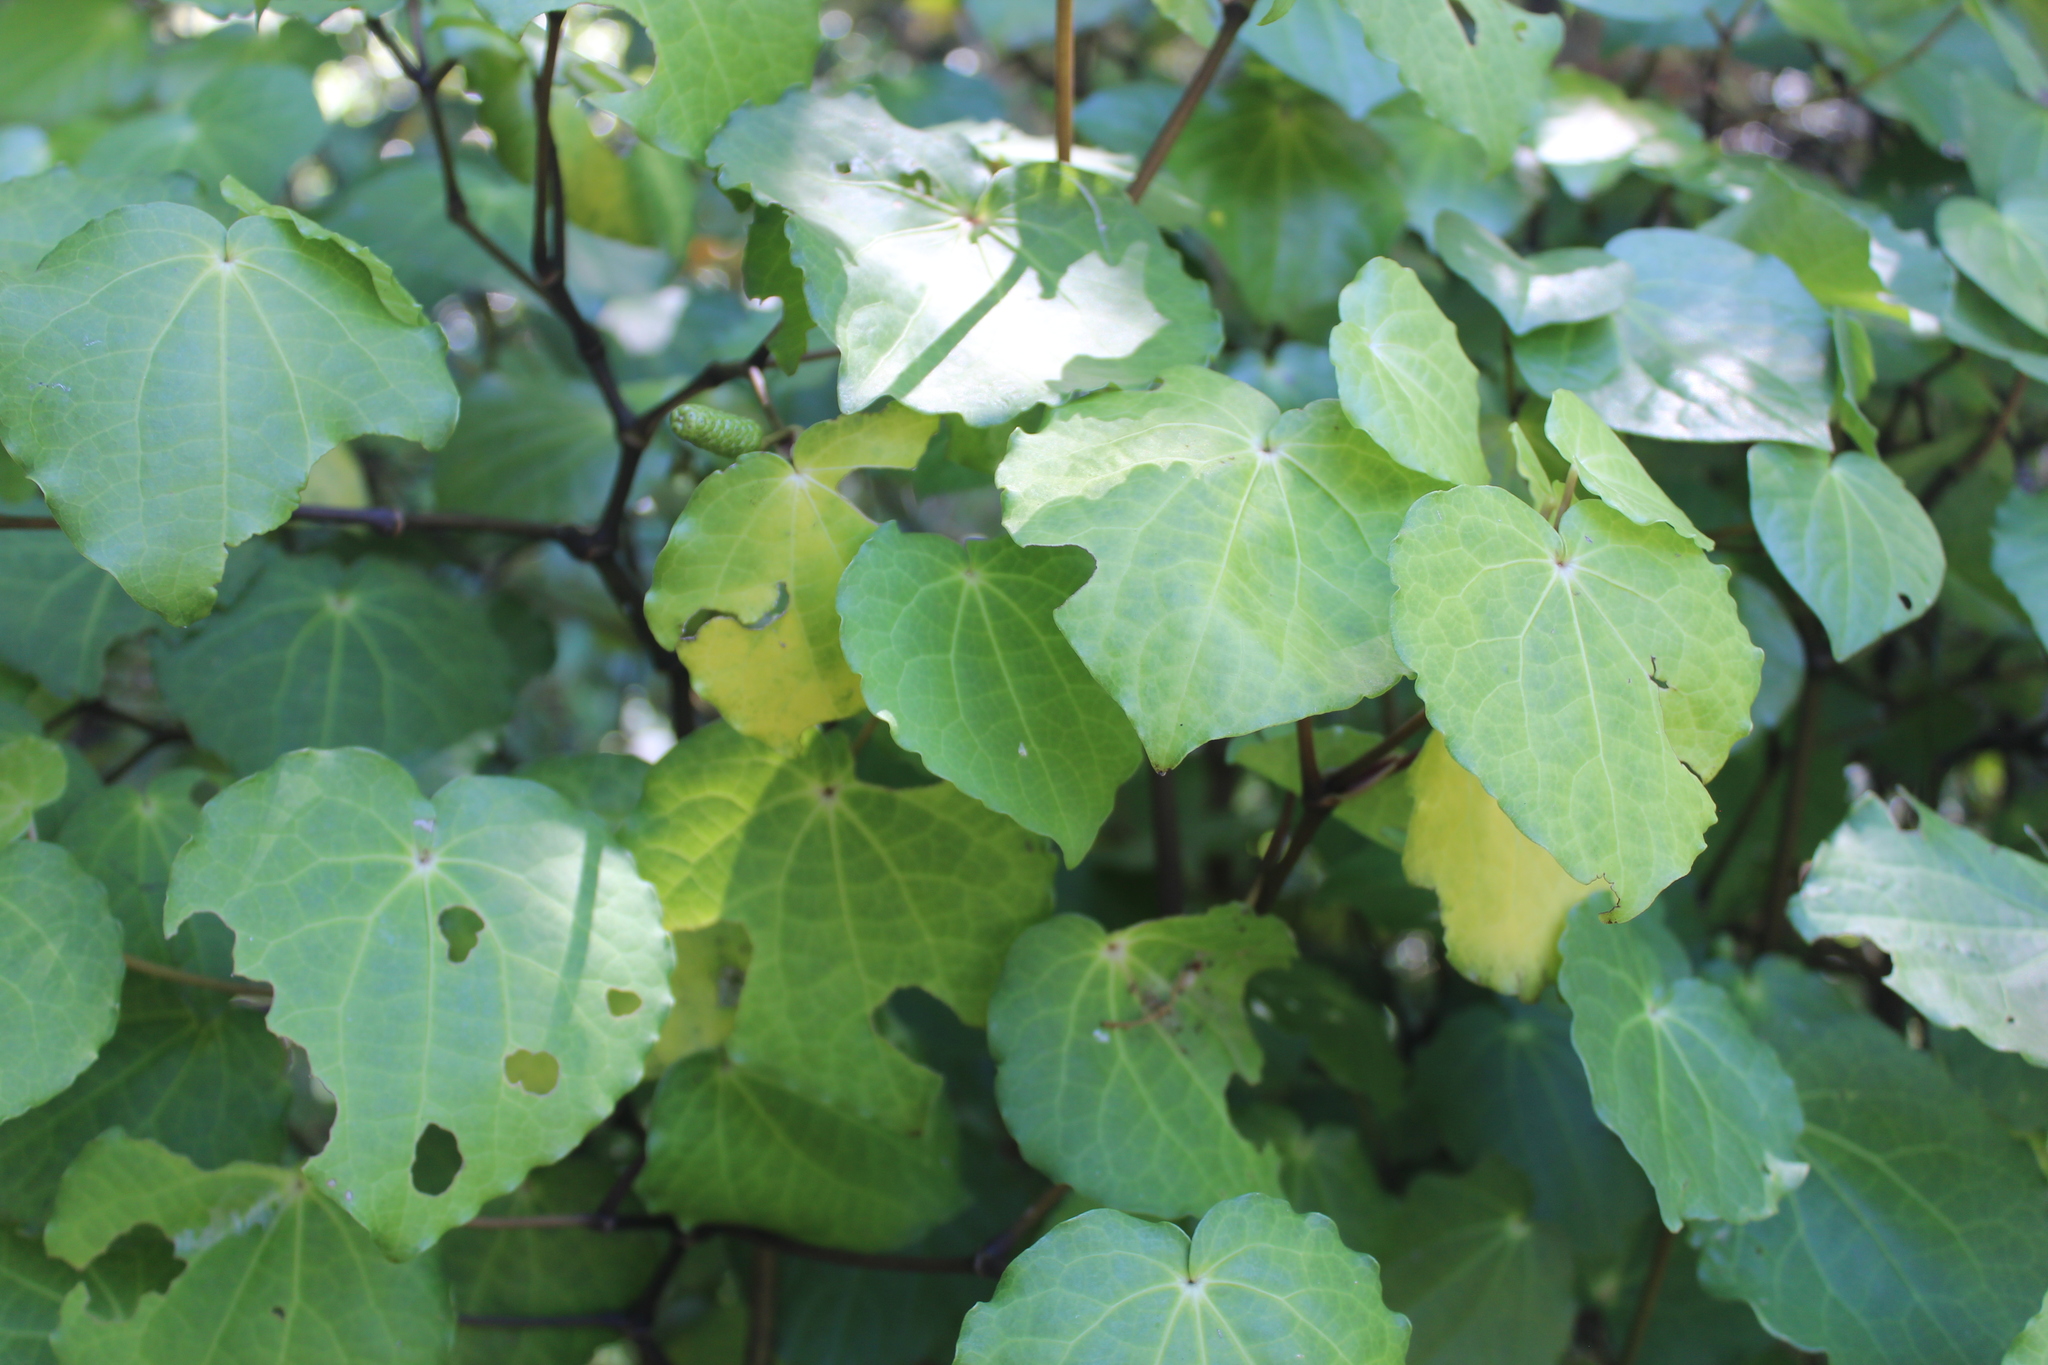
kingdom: Plantae
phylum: Tracheophyta
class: Magnoliopsida
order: Piperales
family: Piperaceae
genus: Macropiper
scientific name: Macropiper excelsum
